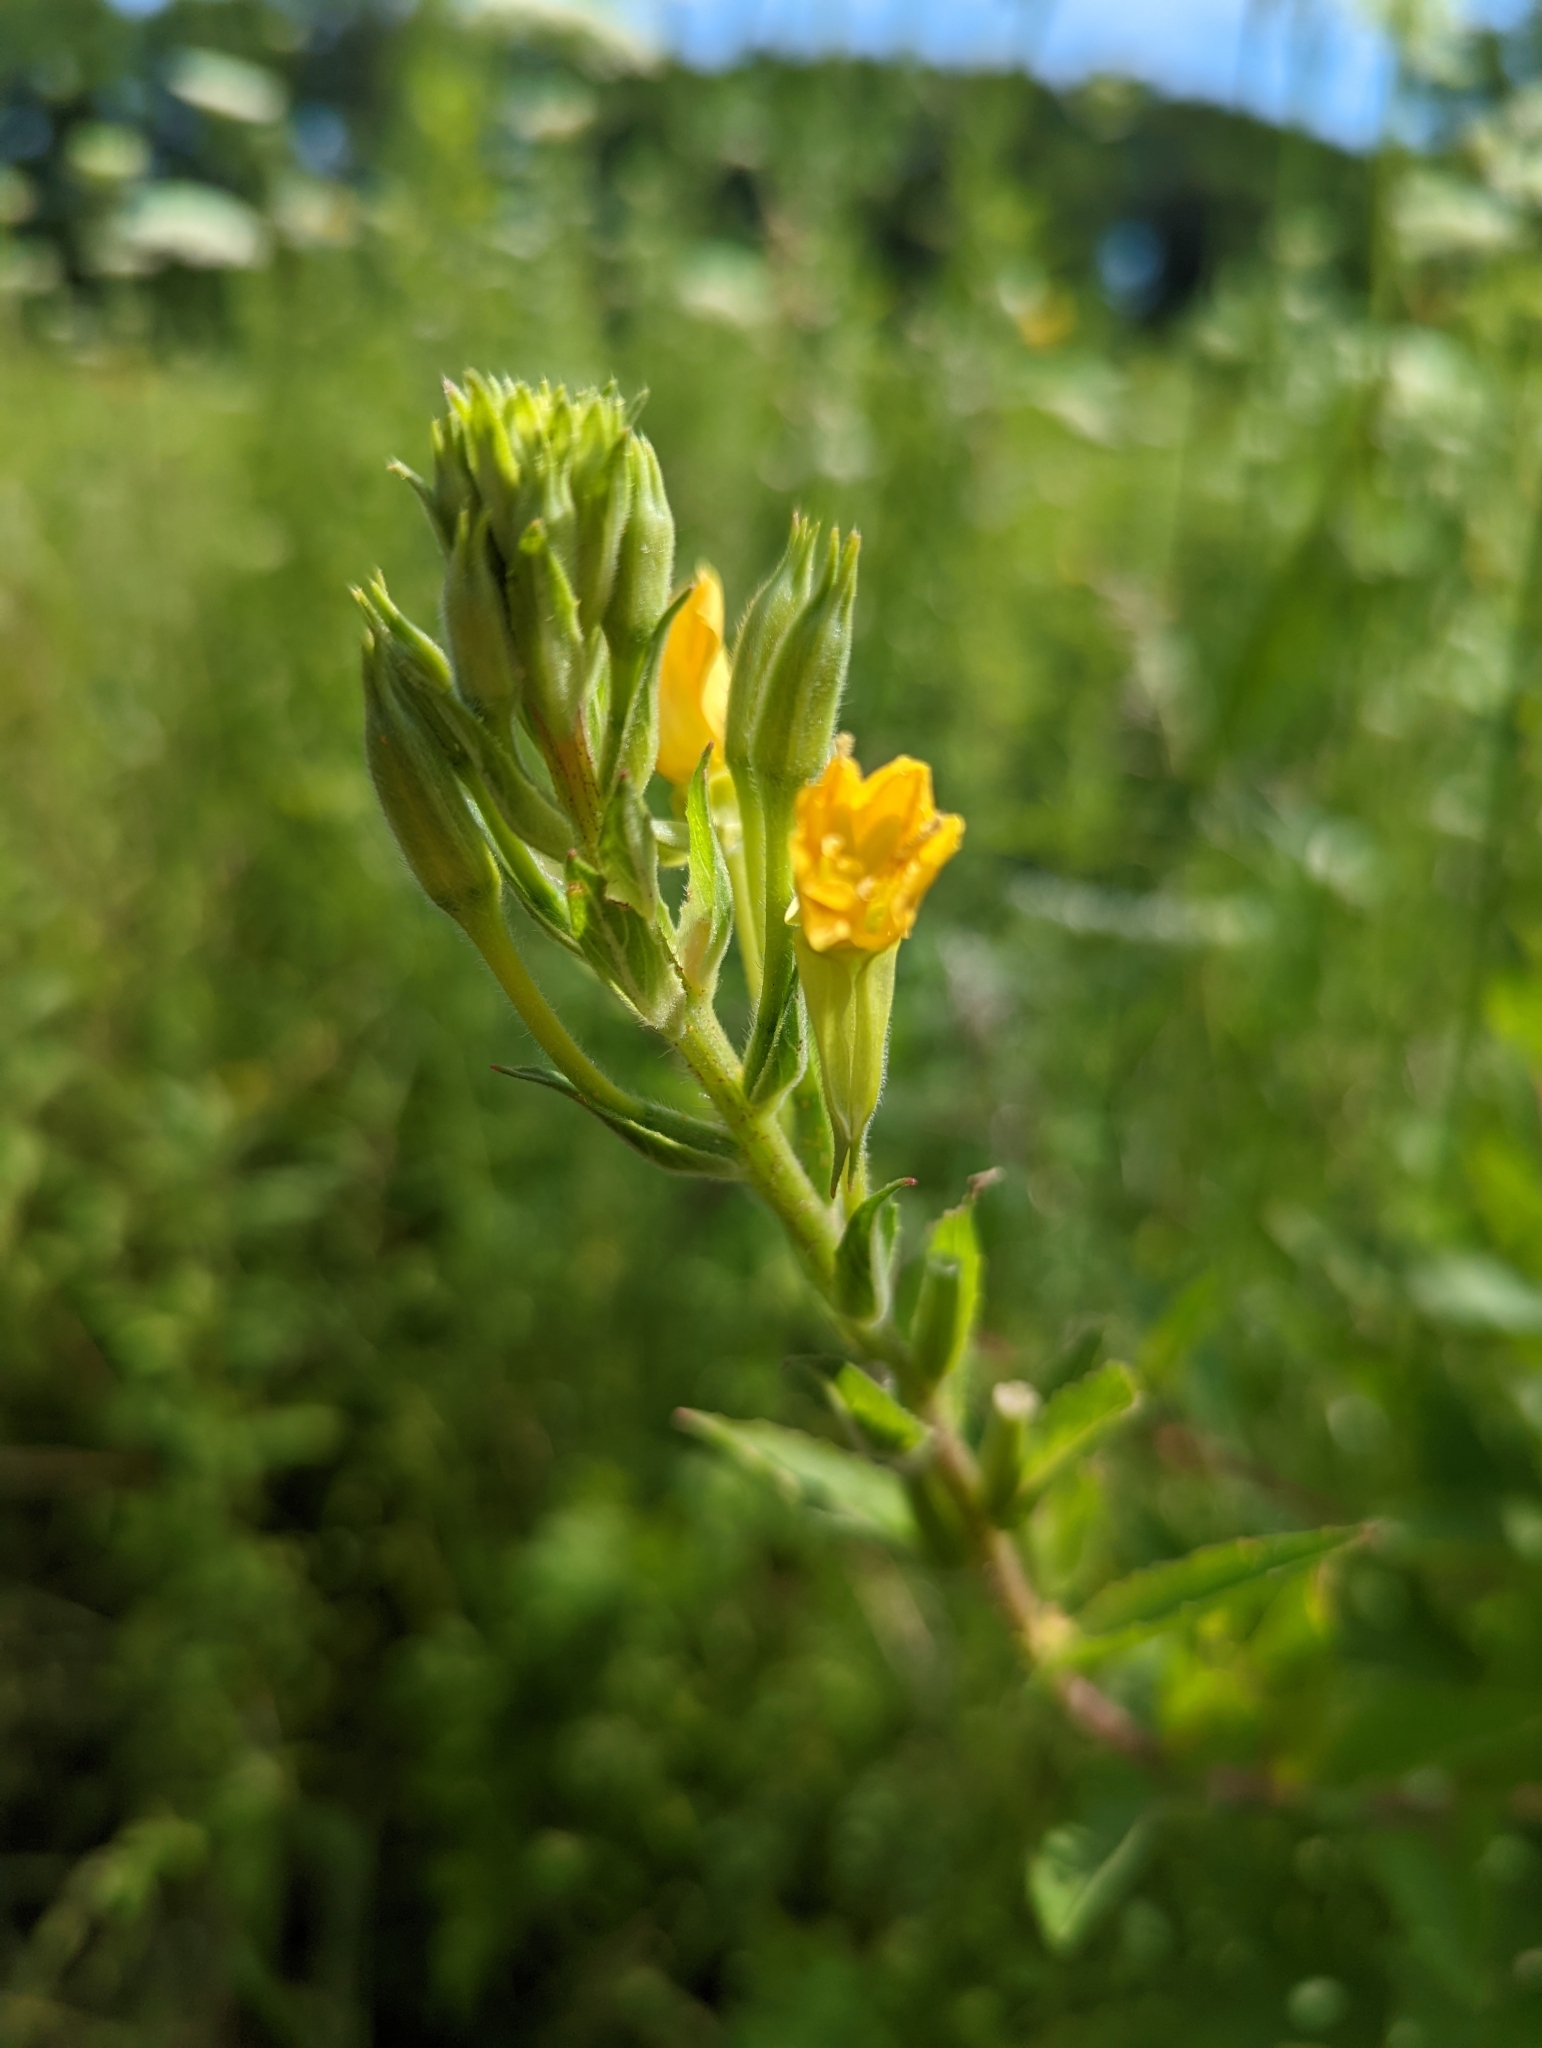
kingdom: Plantae
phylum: Tracheophyta
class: Magnoliopsida
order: Myrtales
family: Onagraceae
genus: Oenothera
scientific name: Oenothera biennis
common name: Common evening-primrose
